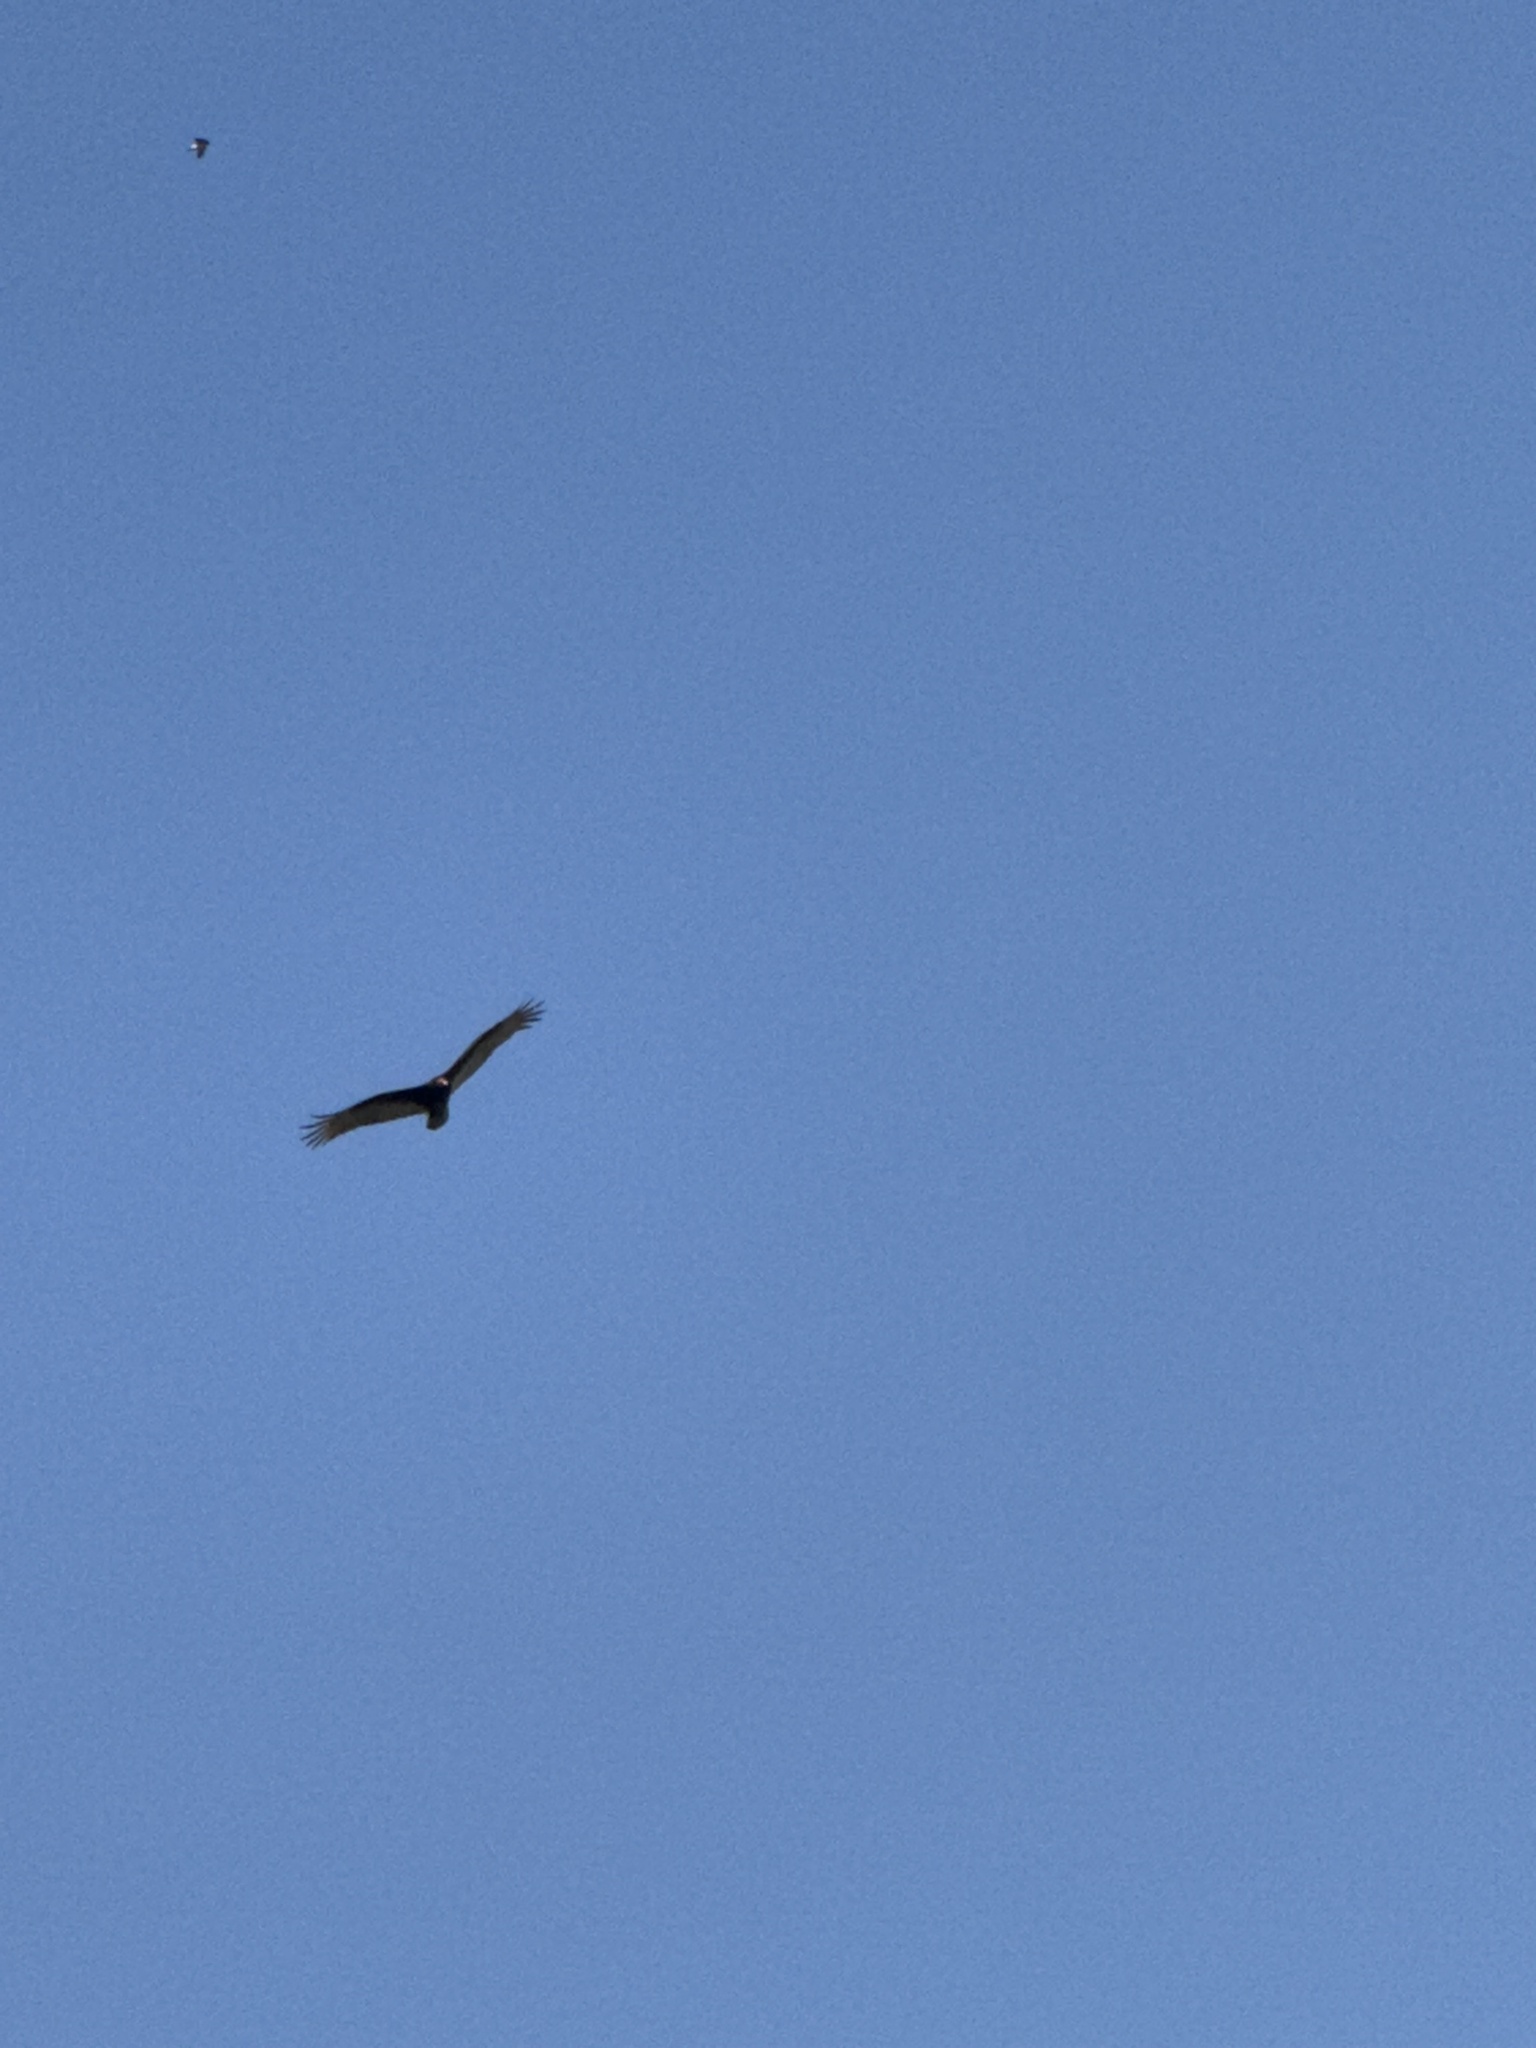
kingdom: Animalia
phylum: Chordata
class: Aves
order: Accipitriformes
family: Cathartidae
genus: Cathartes
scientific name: Cathartes aura
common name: Turkey vulture
